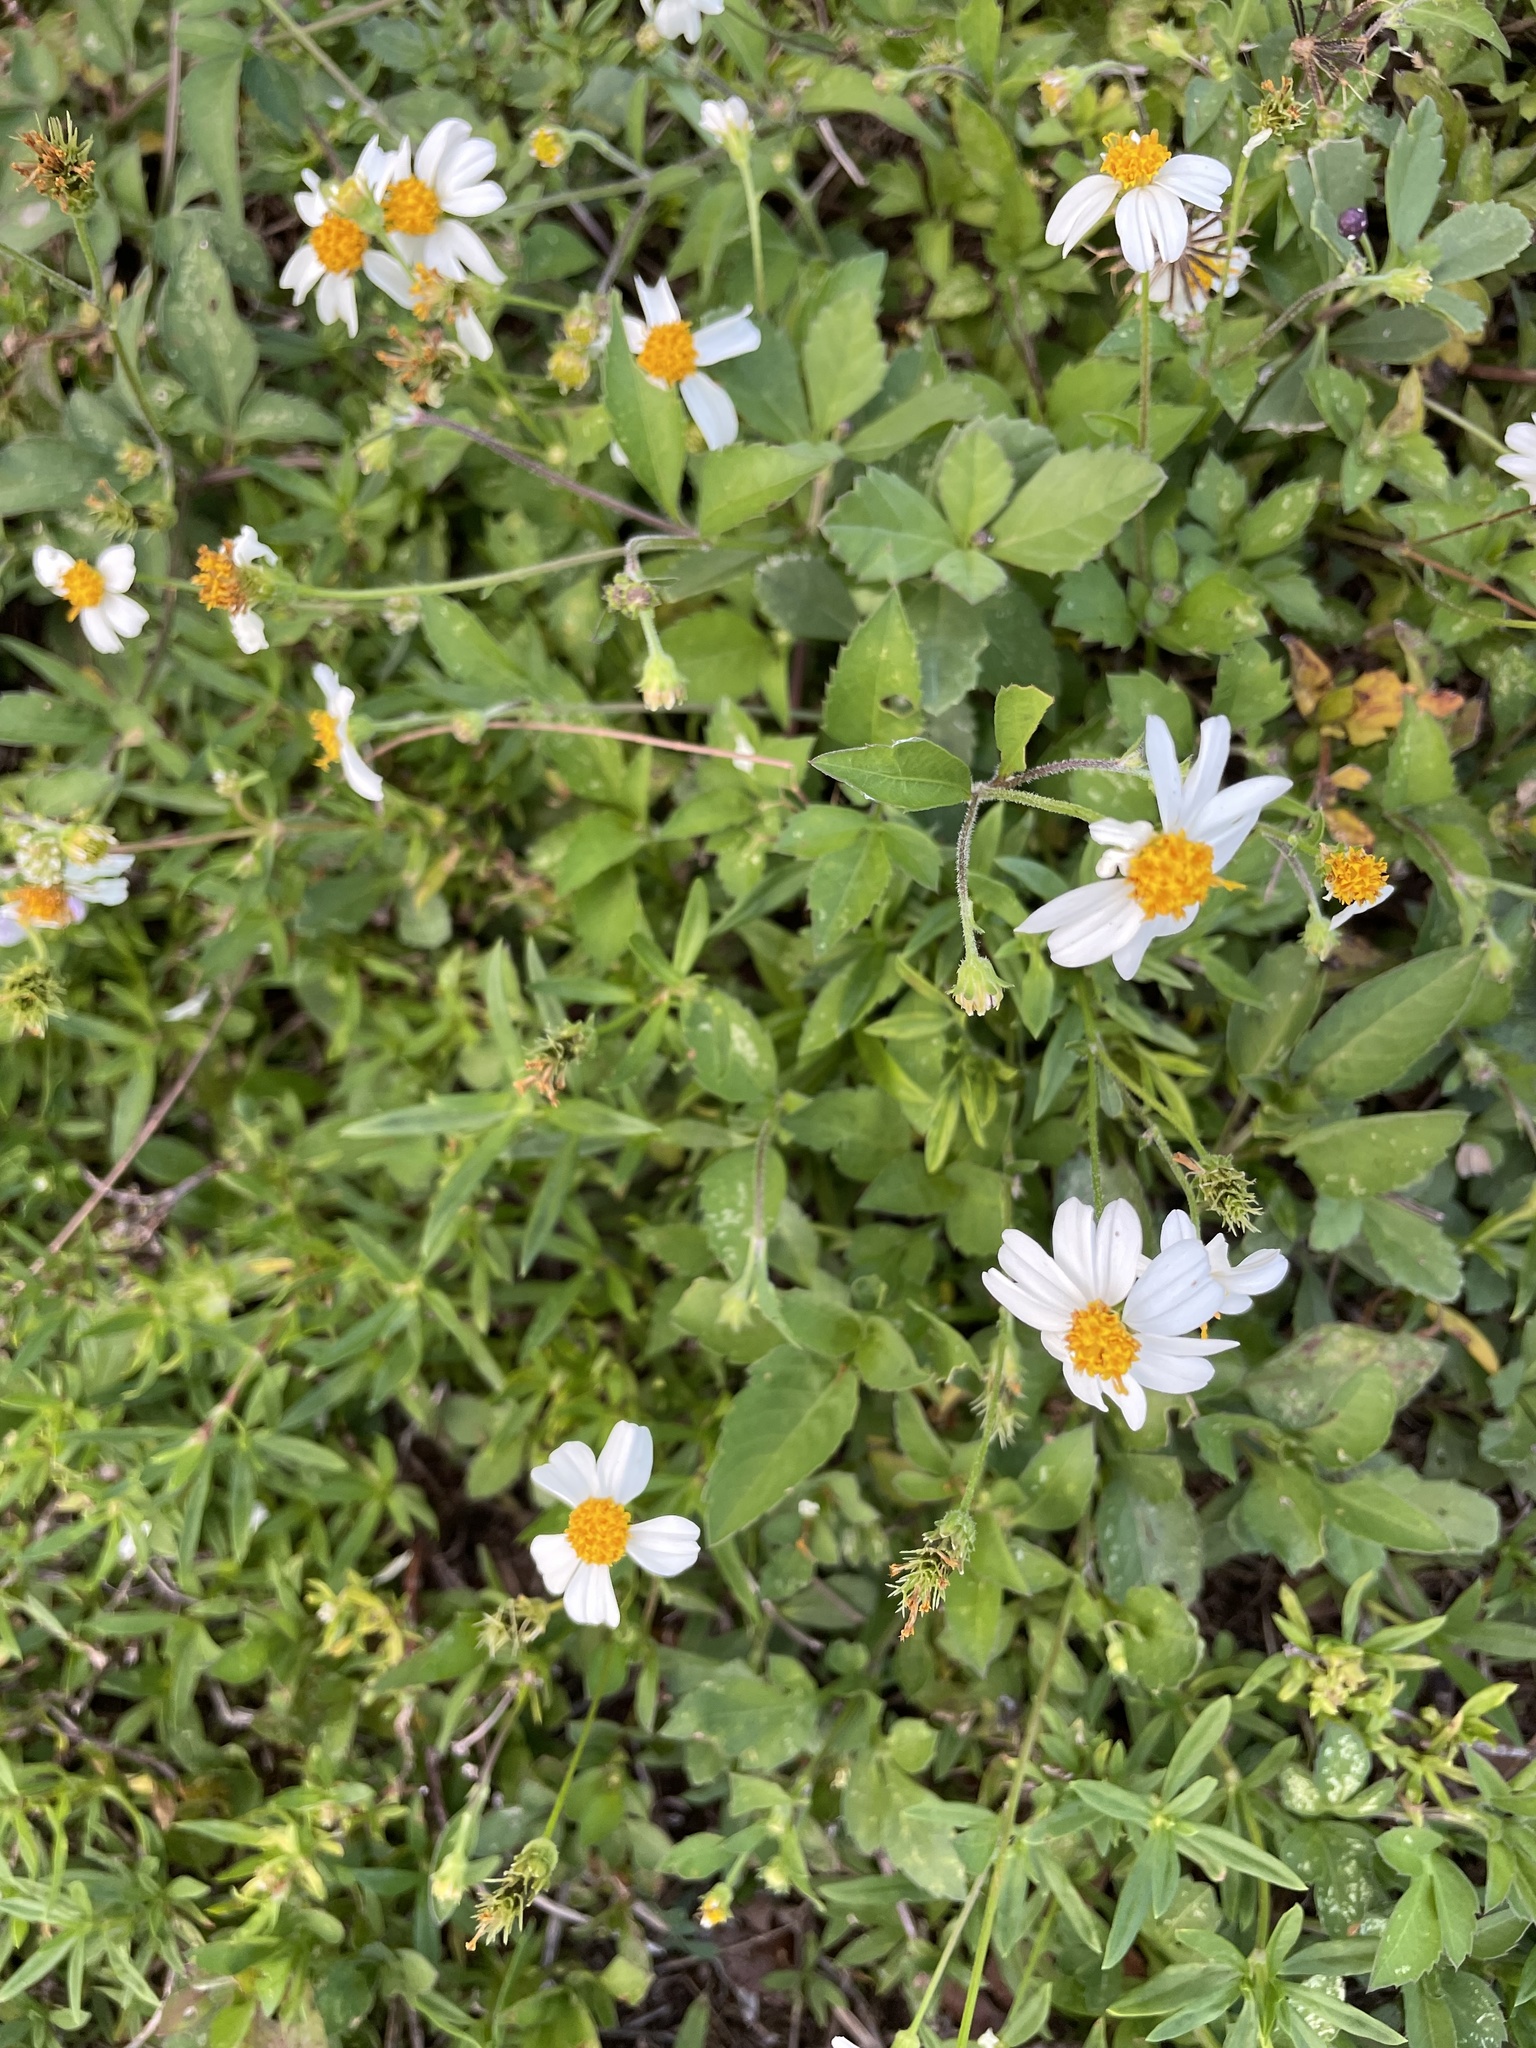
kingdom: Plantae
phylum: Tracheophyta
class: Magnoliopsida
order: Asterales
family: Asteraceae
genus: Bidens
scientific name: Bidens alba
